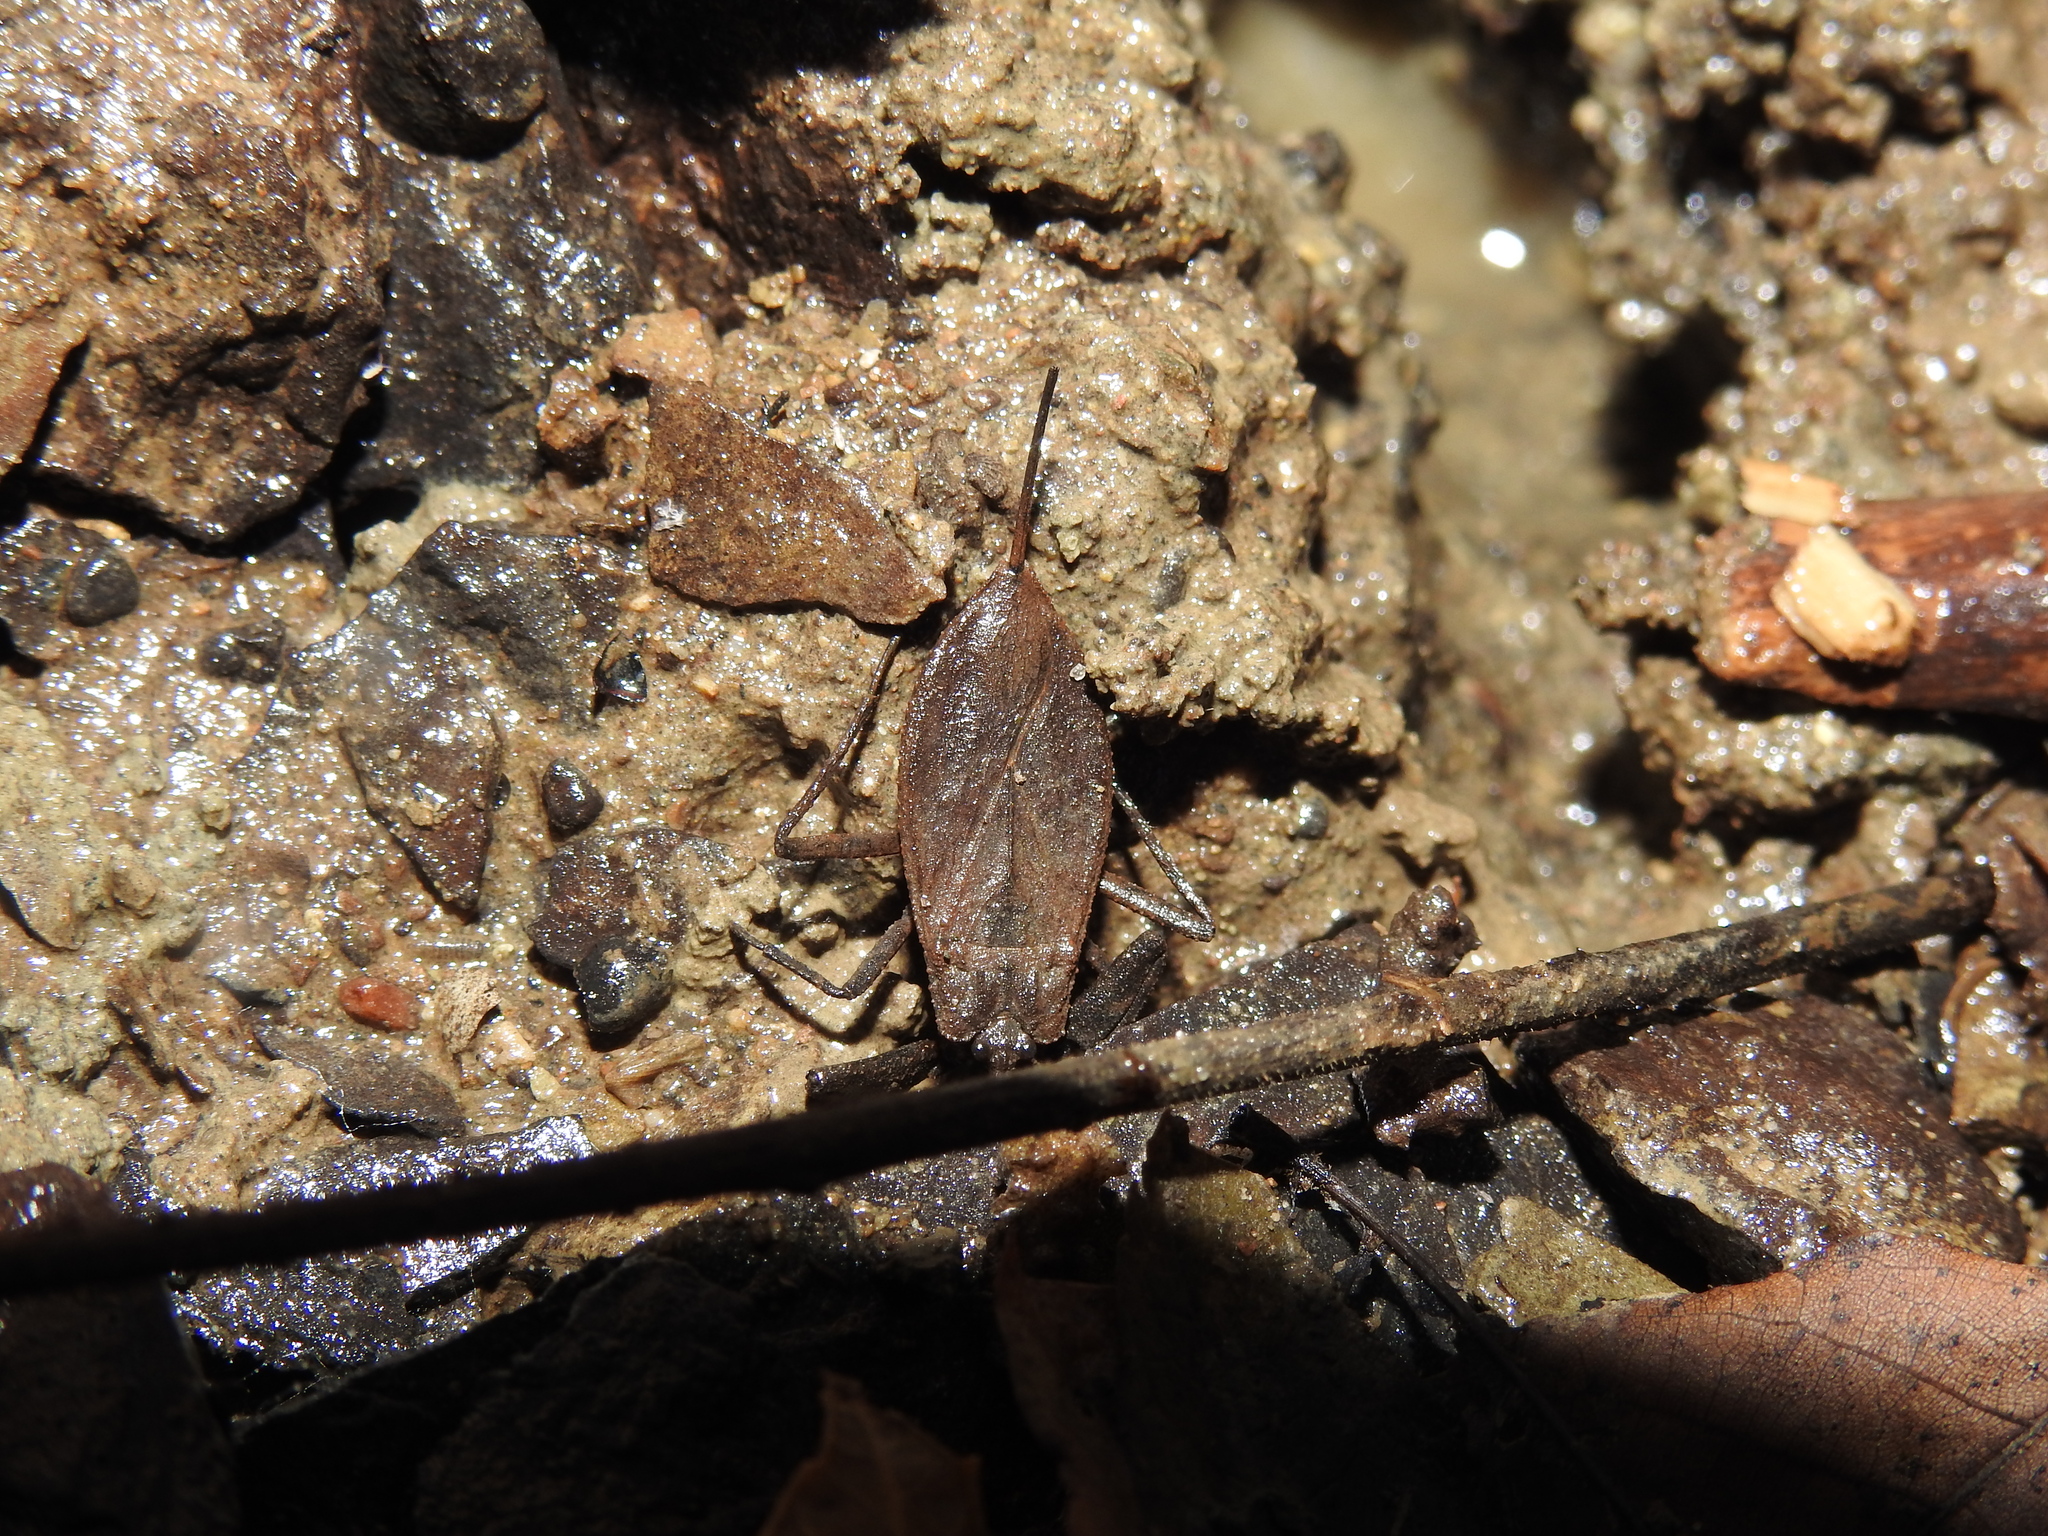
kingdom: Animalia
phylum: Arthropoda
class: Insecta
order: Hemiptera
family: Nepidae
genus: Nepa
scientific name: Nepa apiculata
